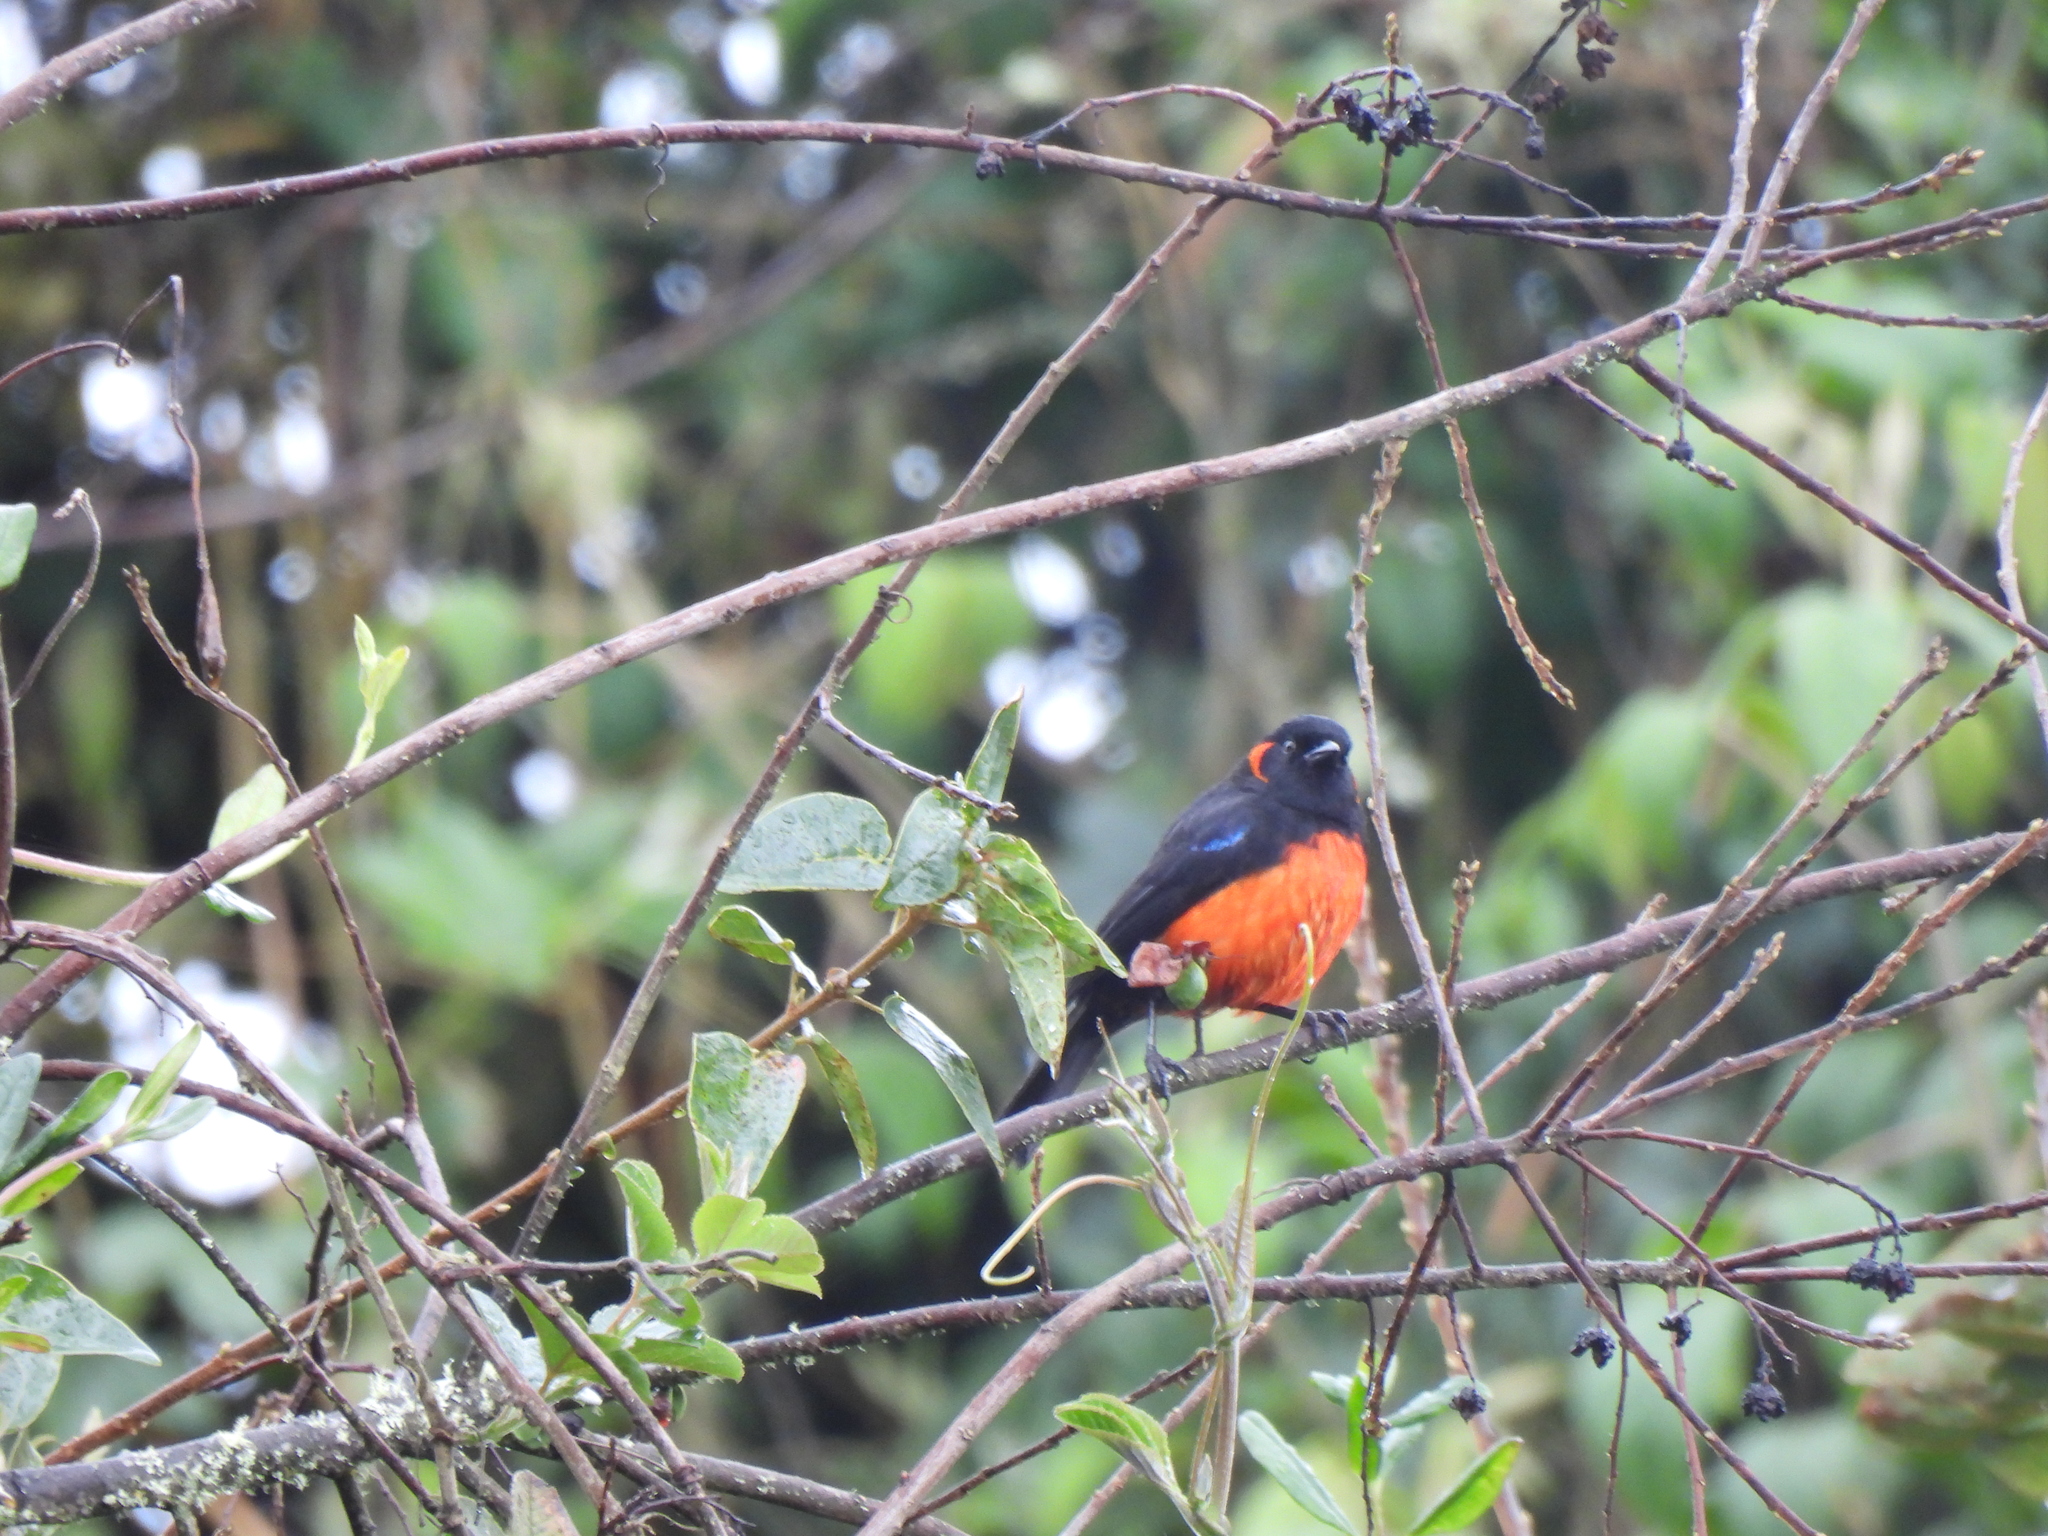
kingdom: Animalia
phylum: Chordata
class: Aves
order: Passeriformes
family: Thraupidae
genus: Anisognathus
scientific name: Anisognathus igniventris
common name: Scarlet-bellied mountain tanager
